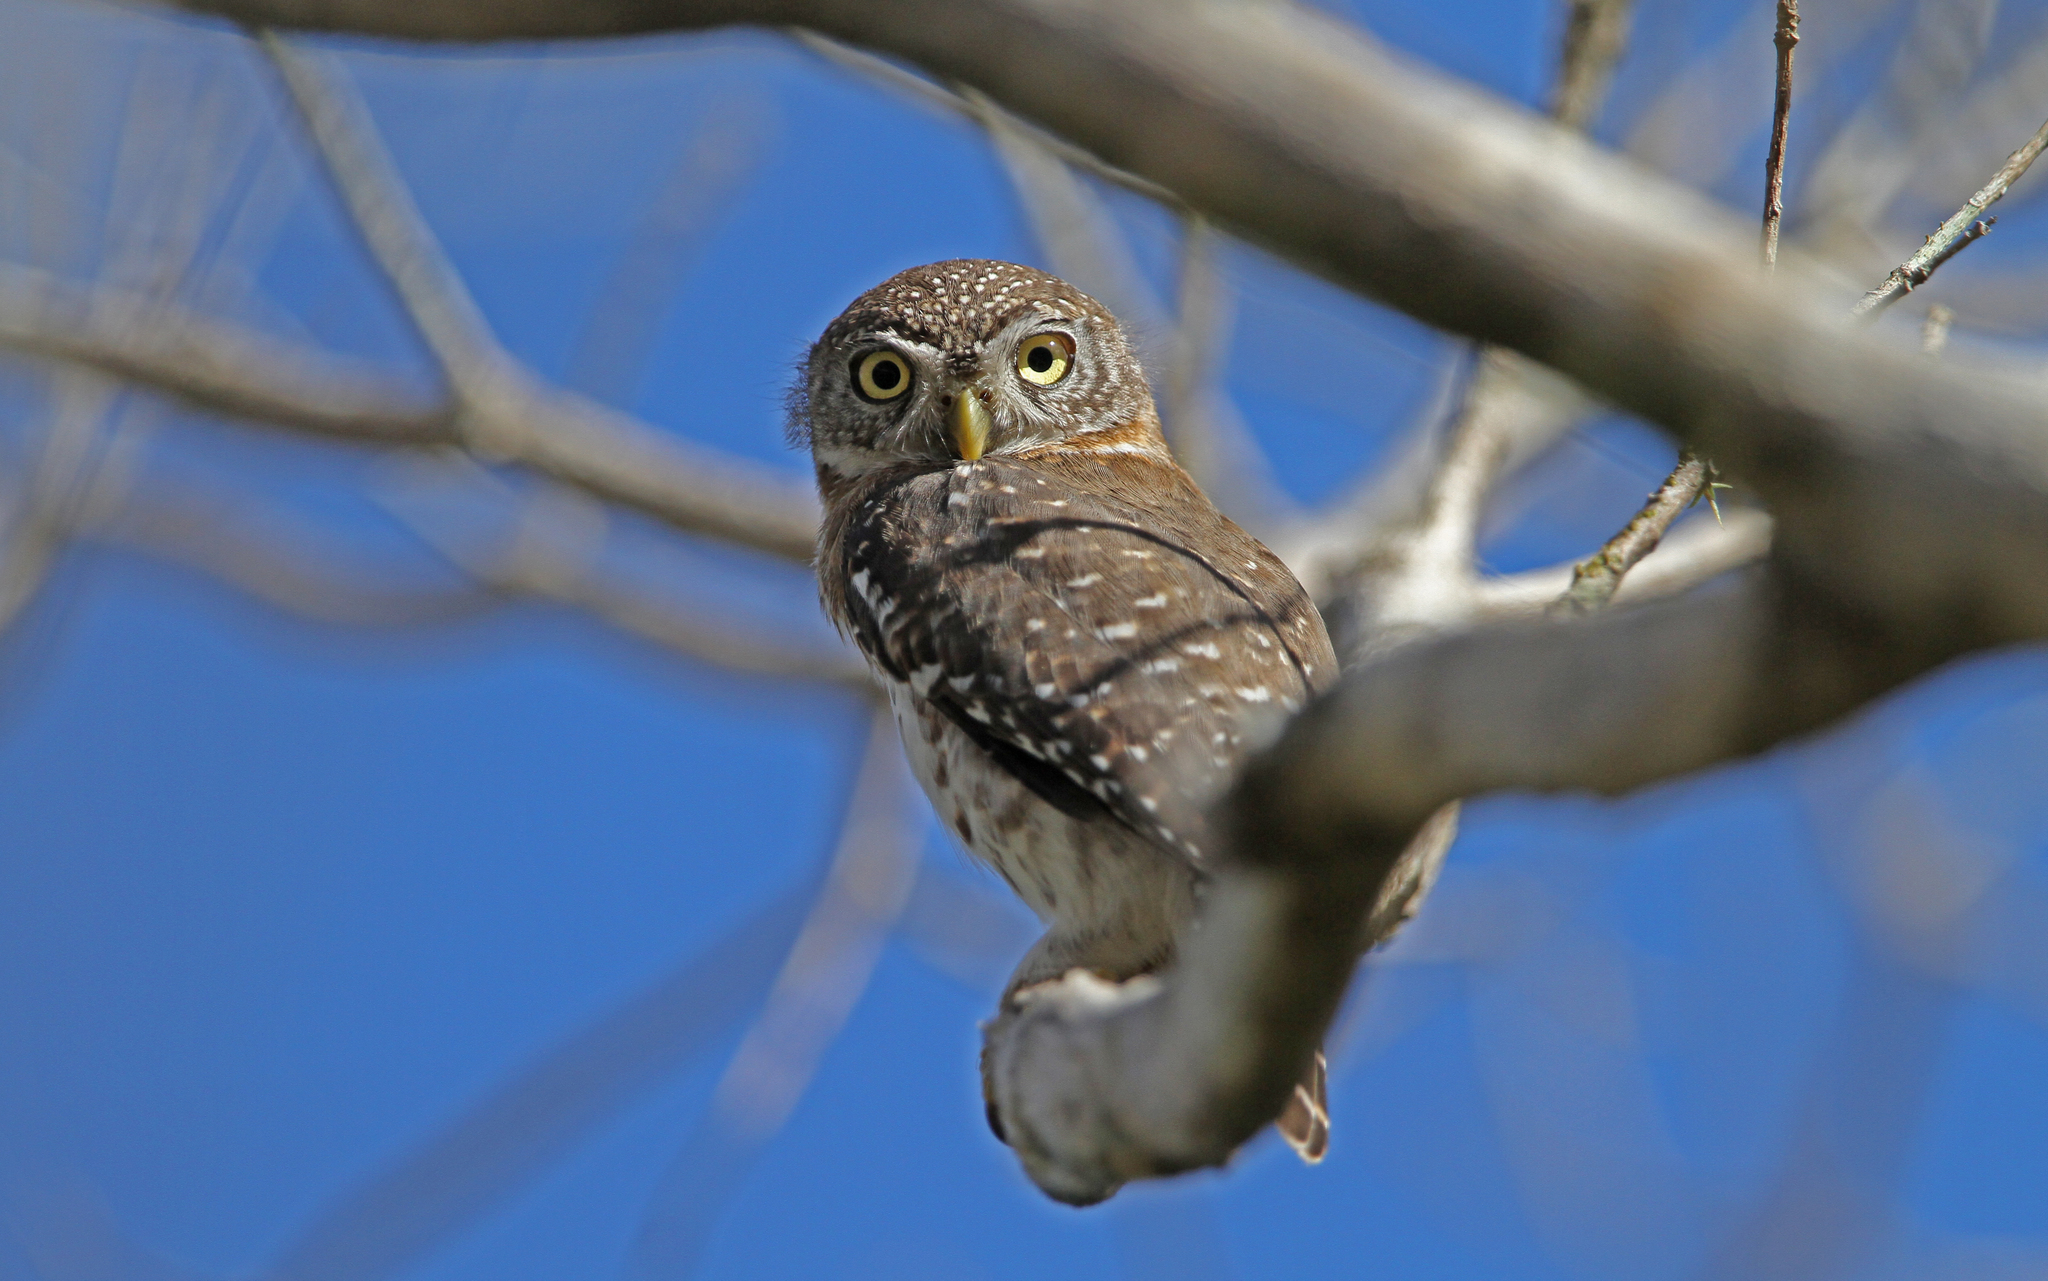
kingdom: Animalia
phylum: Chordata
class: Aves
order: Strigiformes
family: Strigidae
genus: Glaucidium
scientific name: Glaucidium siju
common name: Cuban pygmy-owl
